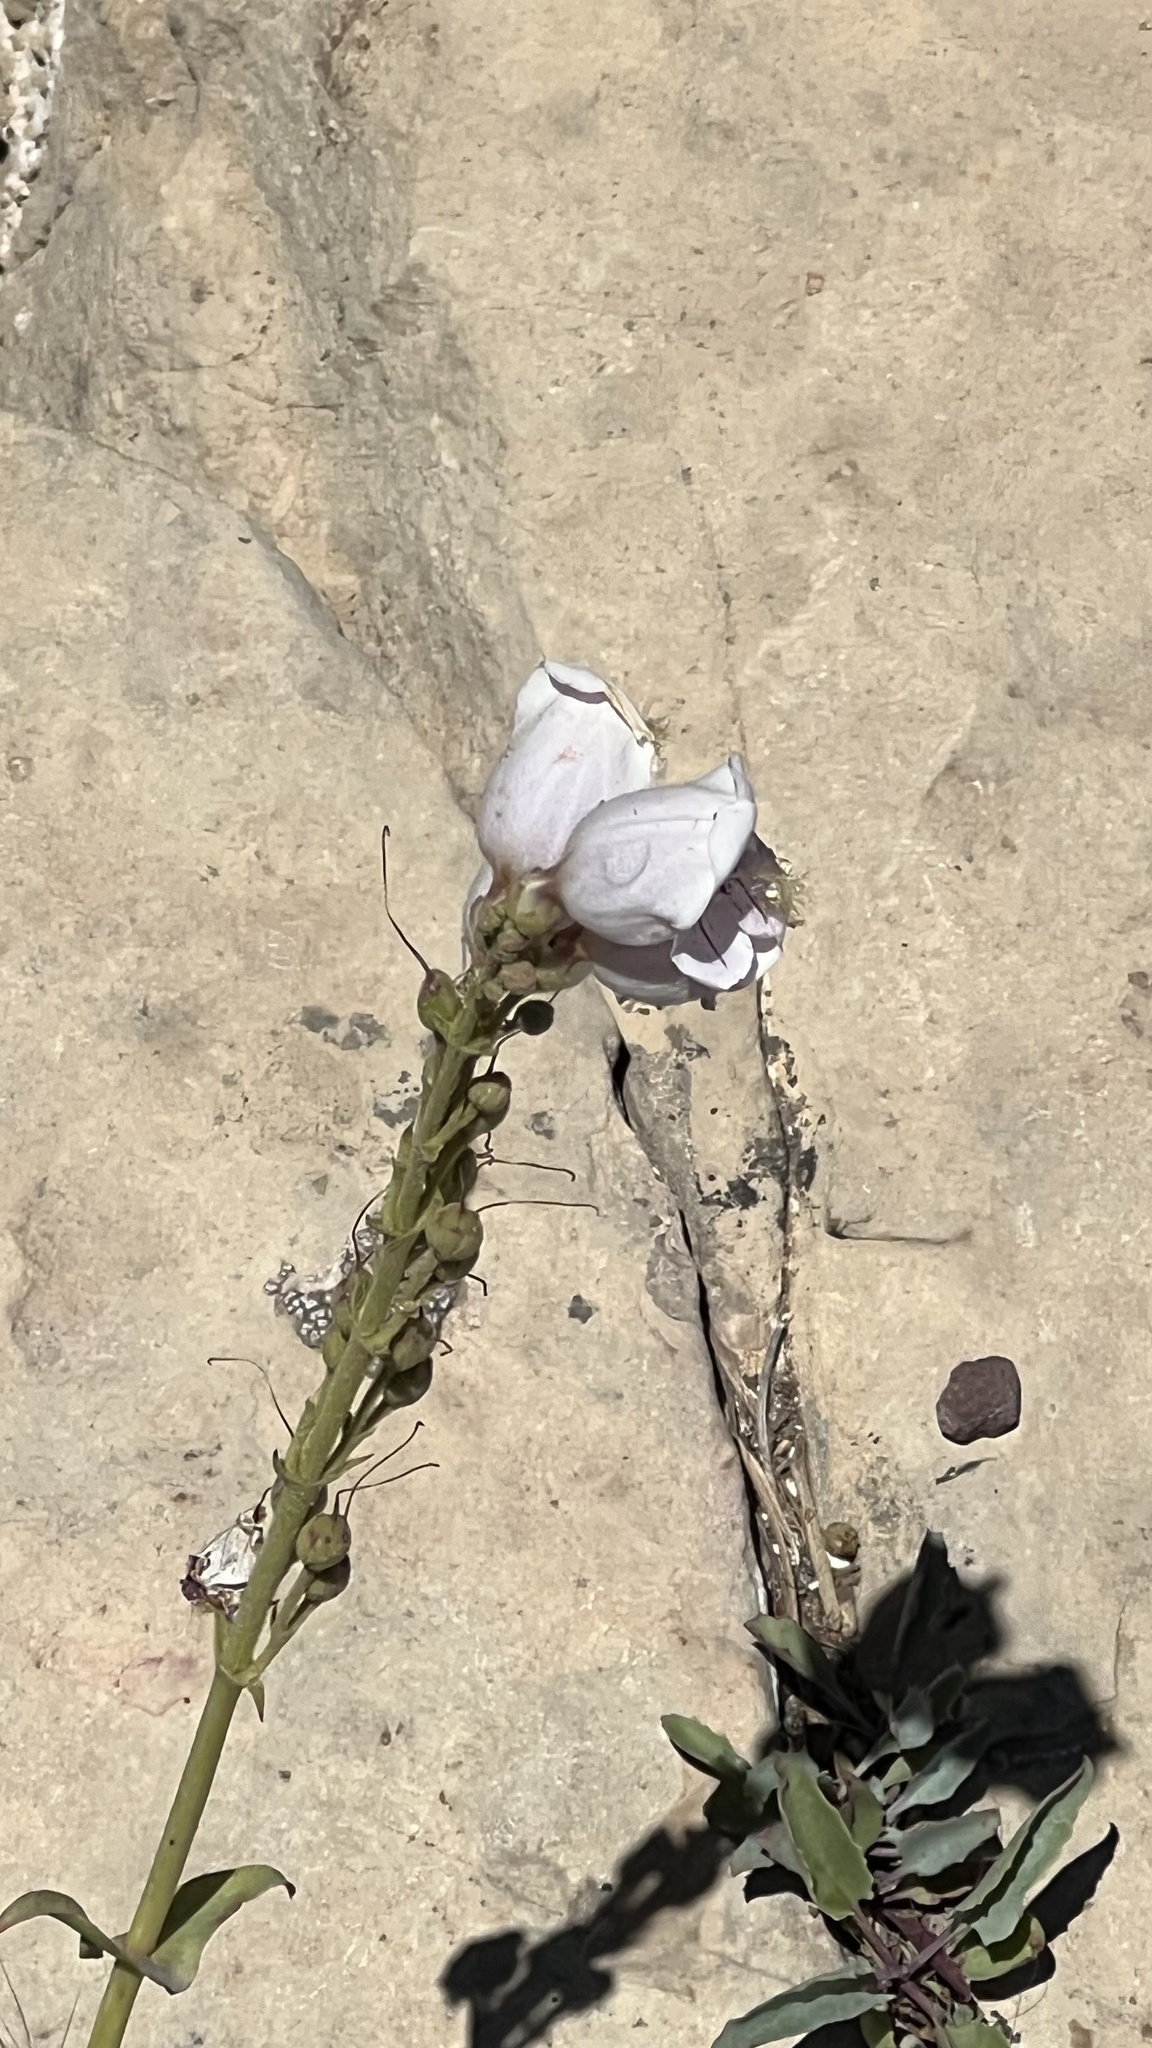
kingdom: Plantae
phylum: Tracheophyta
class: Magnoliopsida
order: Lamiales
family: Plantaginaceae
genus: Penstemon
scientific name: Penstemon palmeri
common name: Palmer penstemon
